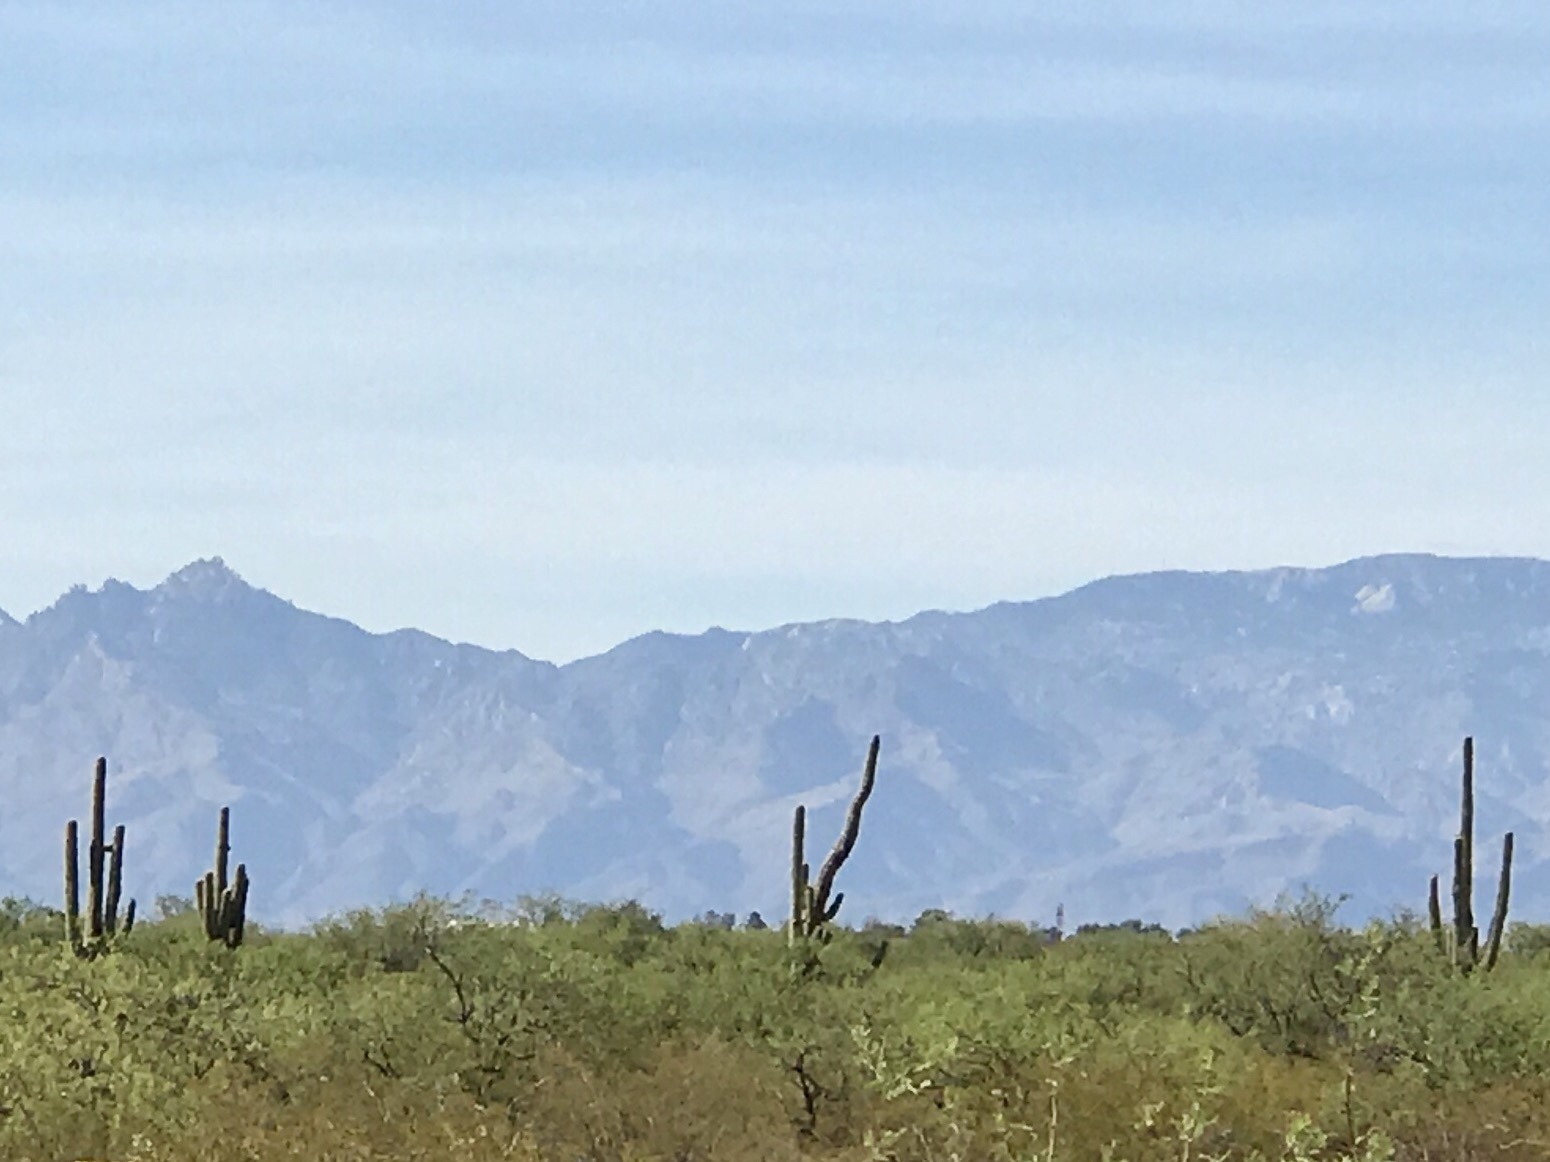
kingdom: Plantae
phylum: Tracheophyta
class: Magnoliopsida
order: Caryophyllales
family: Cactaceae
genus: Carnegiea
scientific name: Carnegiea gigantea
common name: Saguaro
